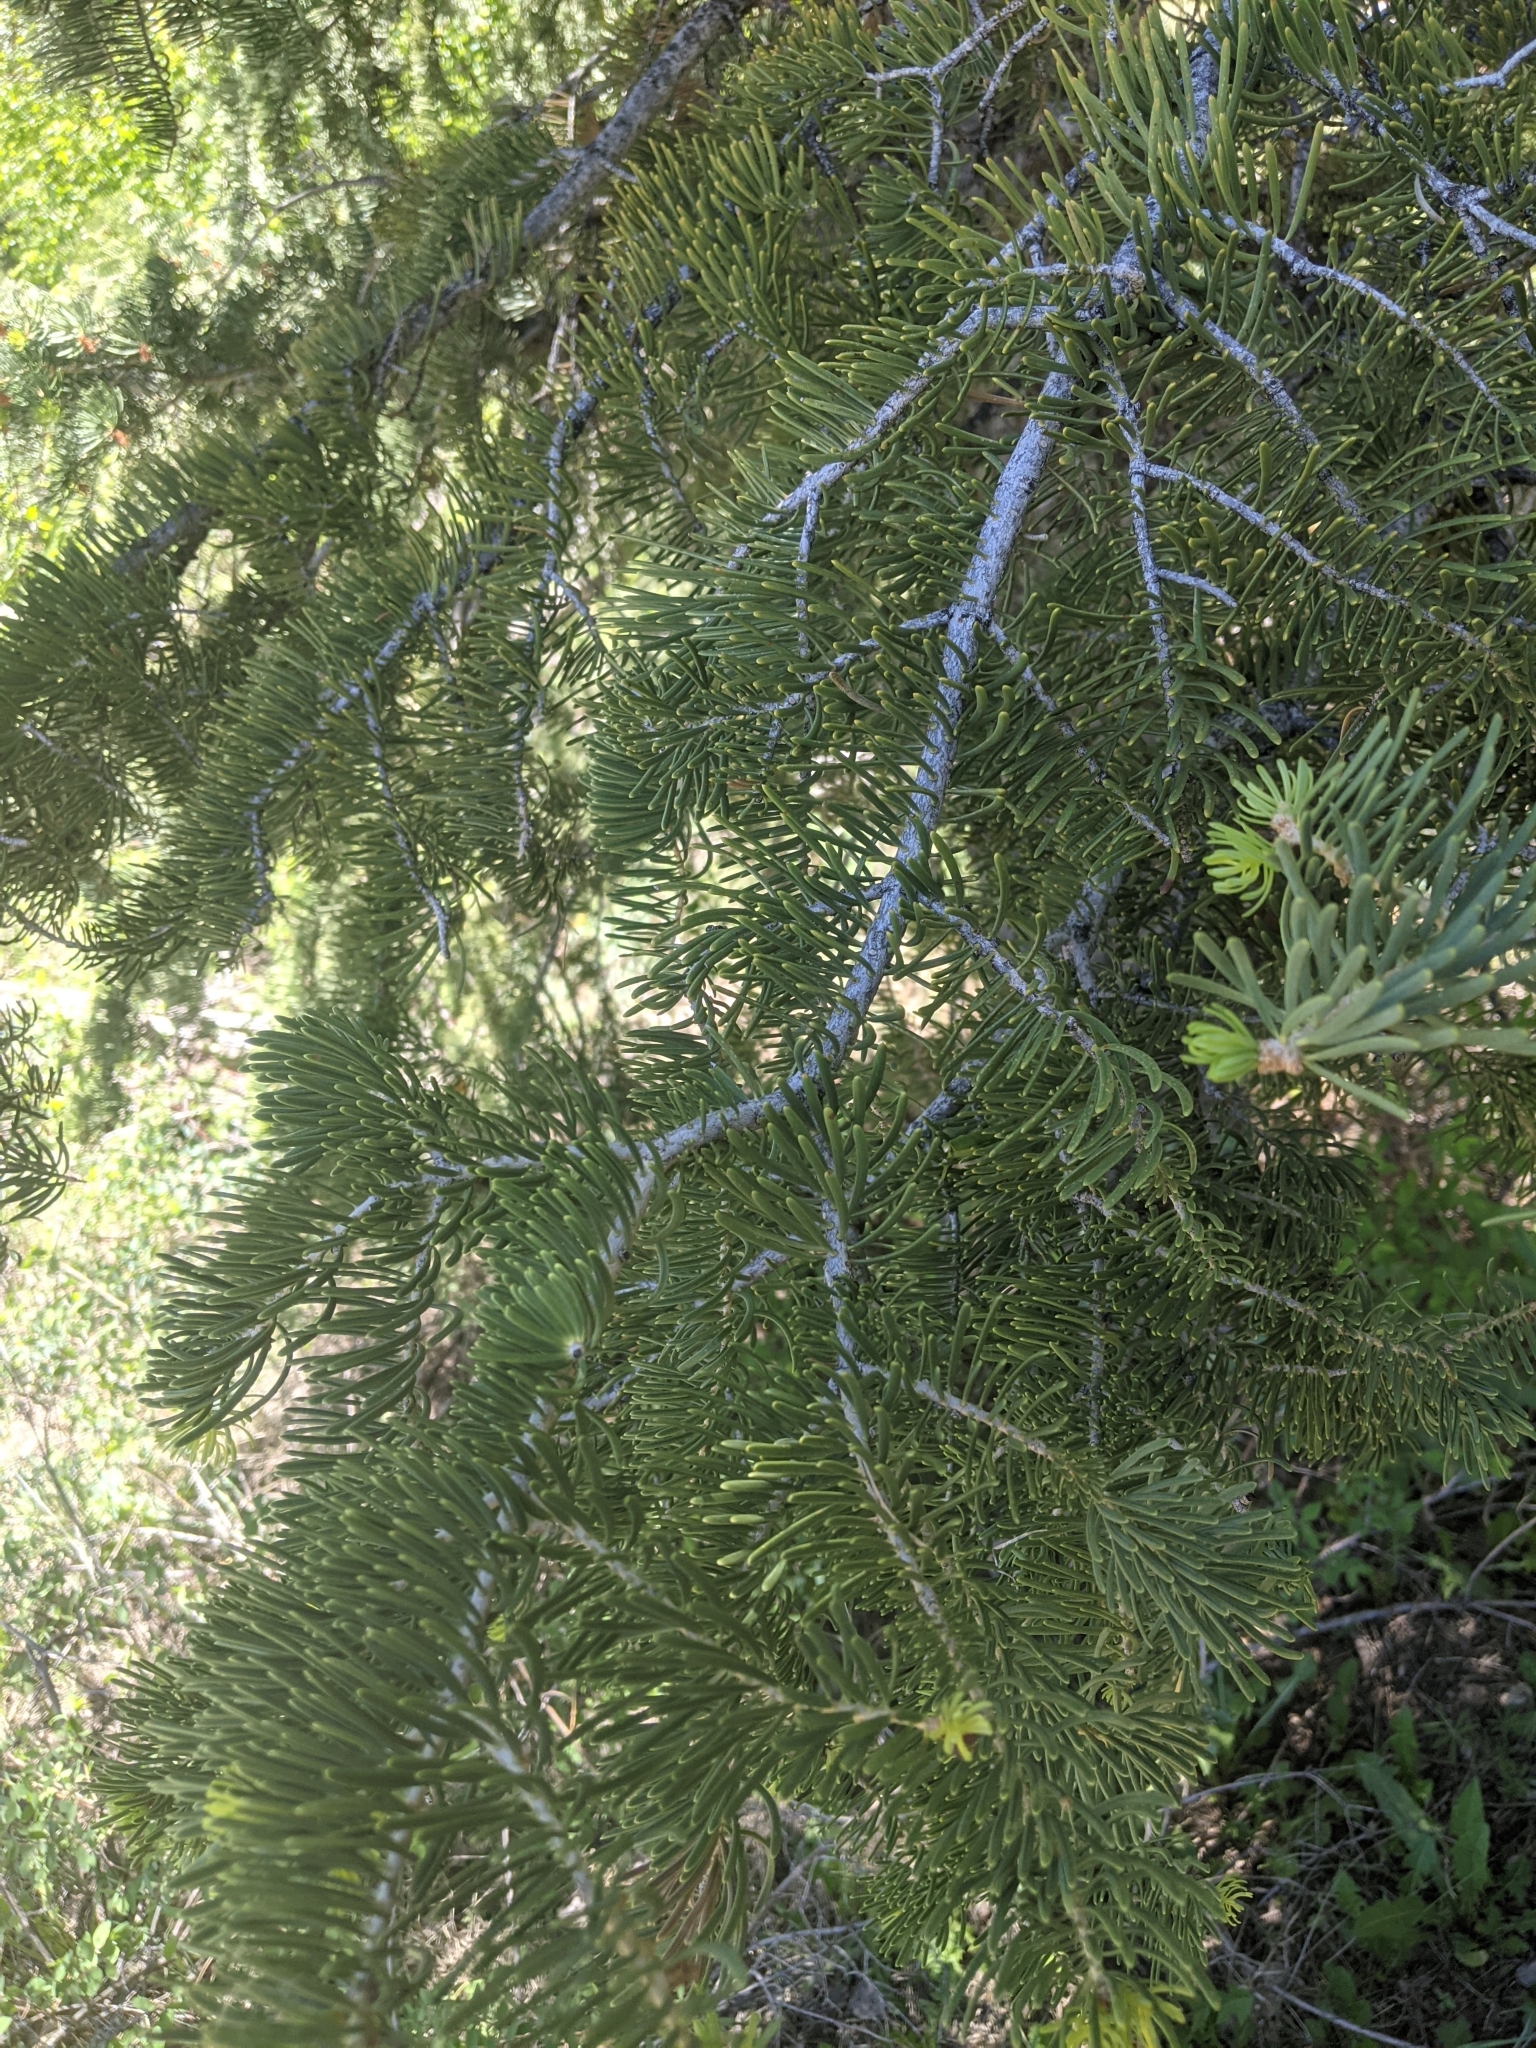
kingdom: Plantae
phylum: Tracheophyta
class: Pinopsida
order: Pinales
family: Pinaceae
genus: Abies
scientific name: Abies concolor
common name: Colorado fir
